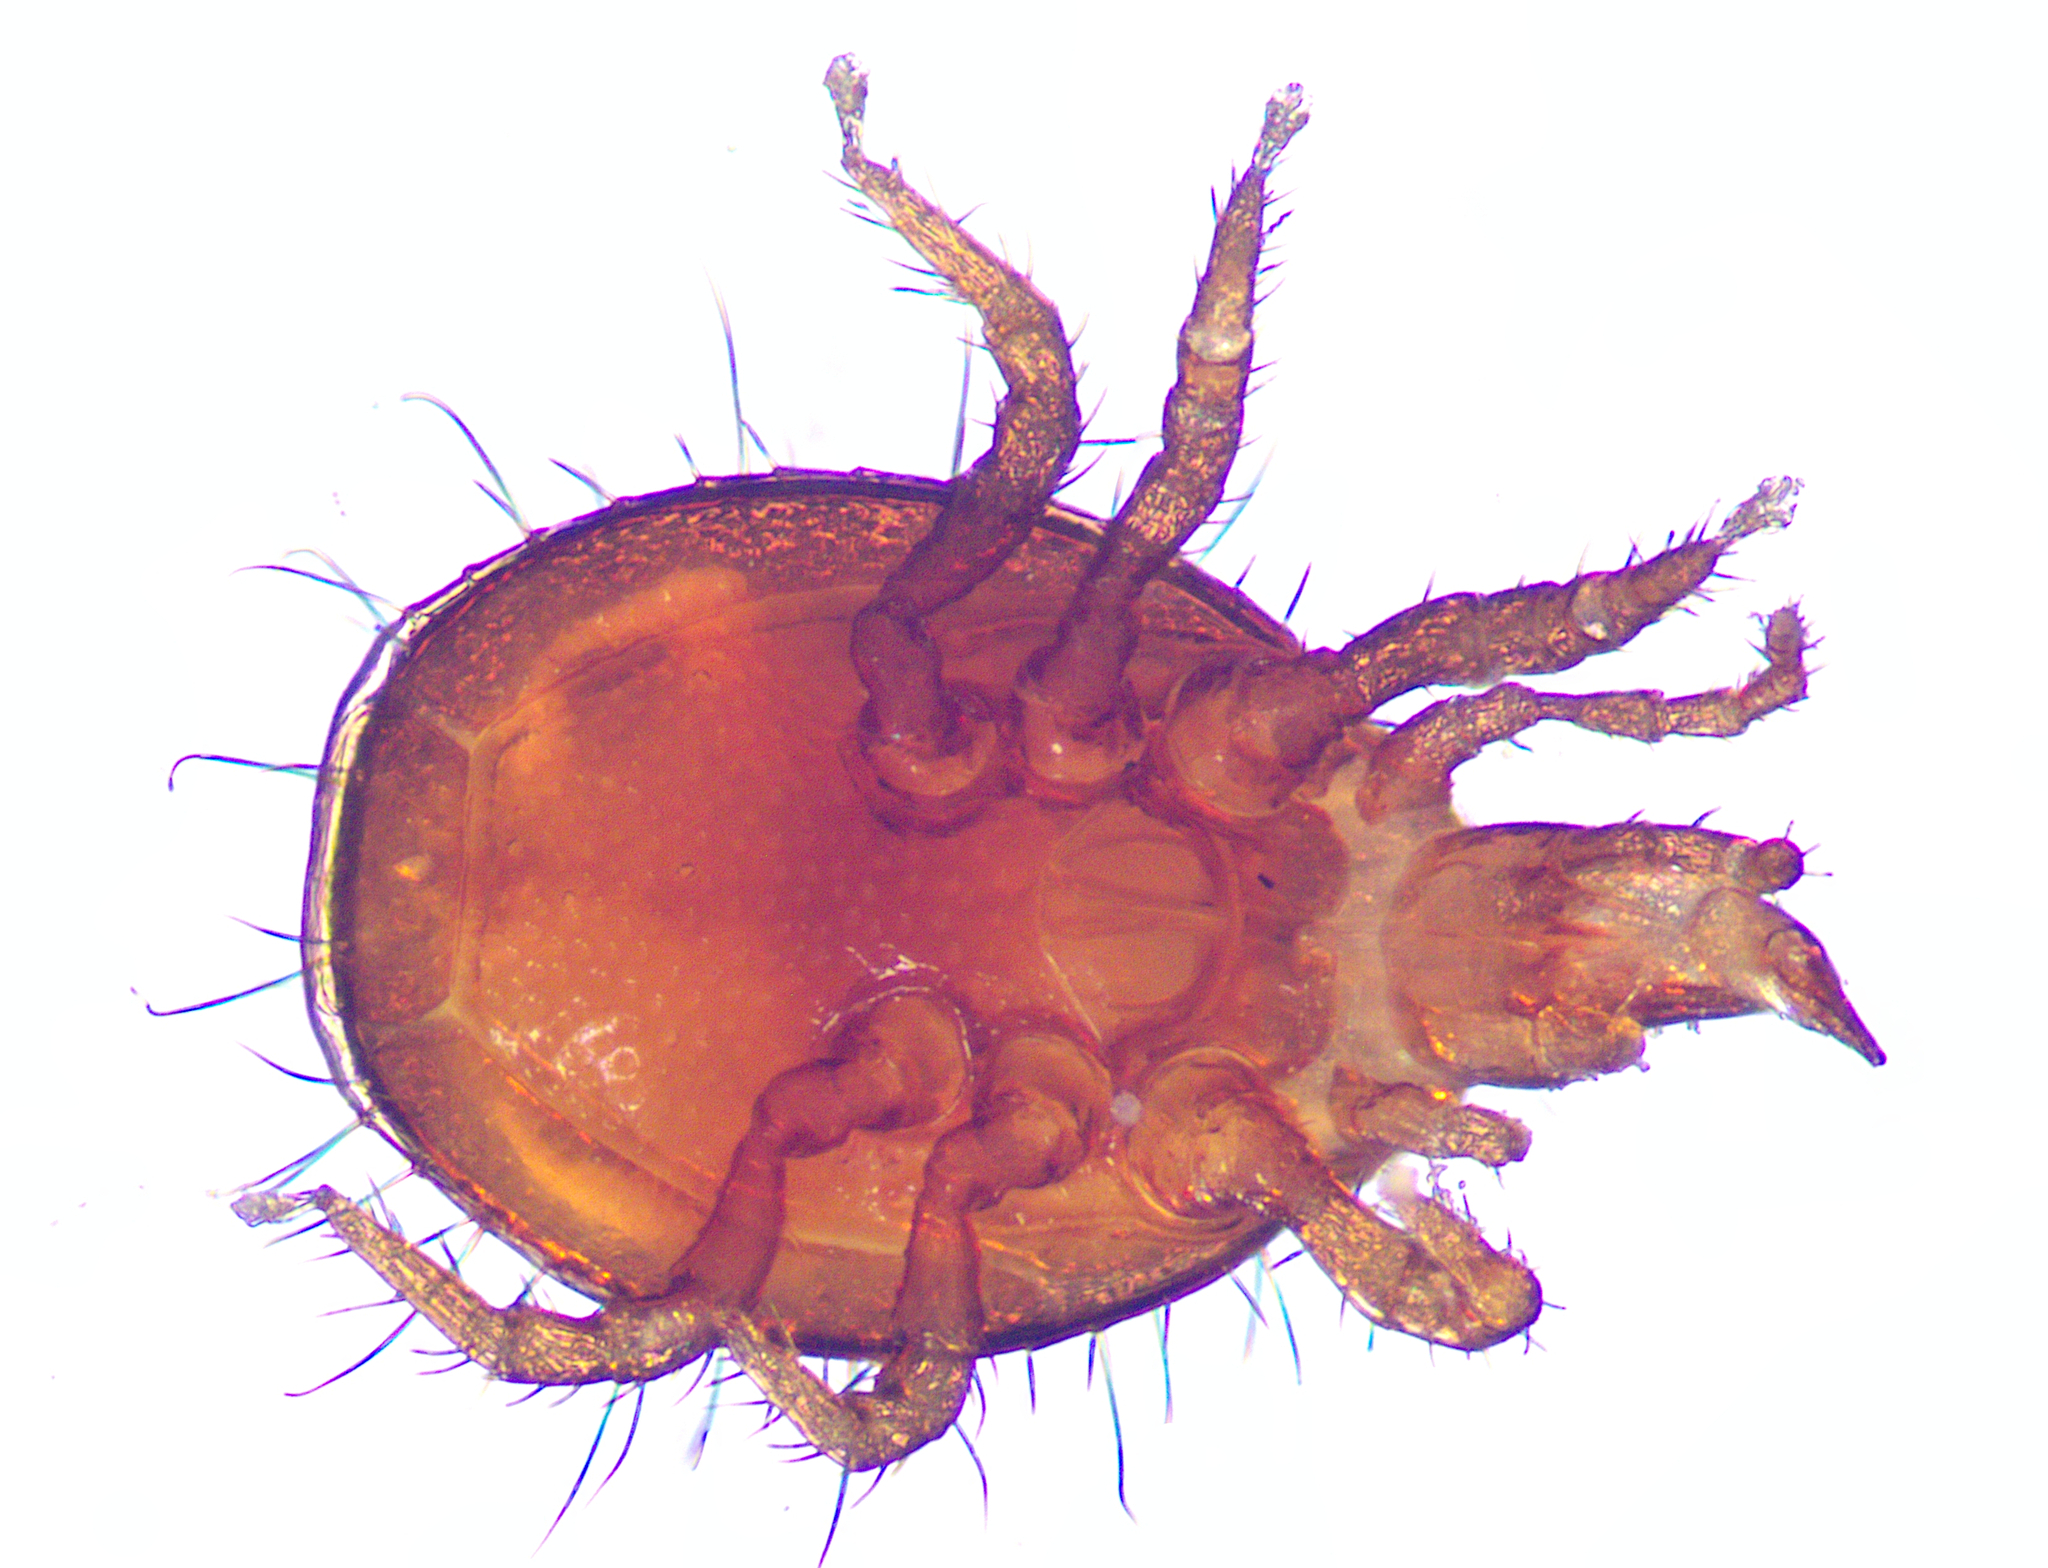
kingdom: Animalia
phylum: Arthropoda
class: Arachnida
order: Mesostigmata
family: Triplogyniidae
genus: Funkotriplogynium
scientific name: Funkotriplogynium iagobadius
